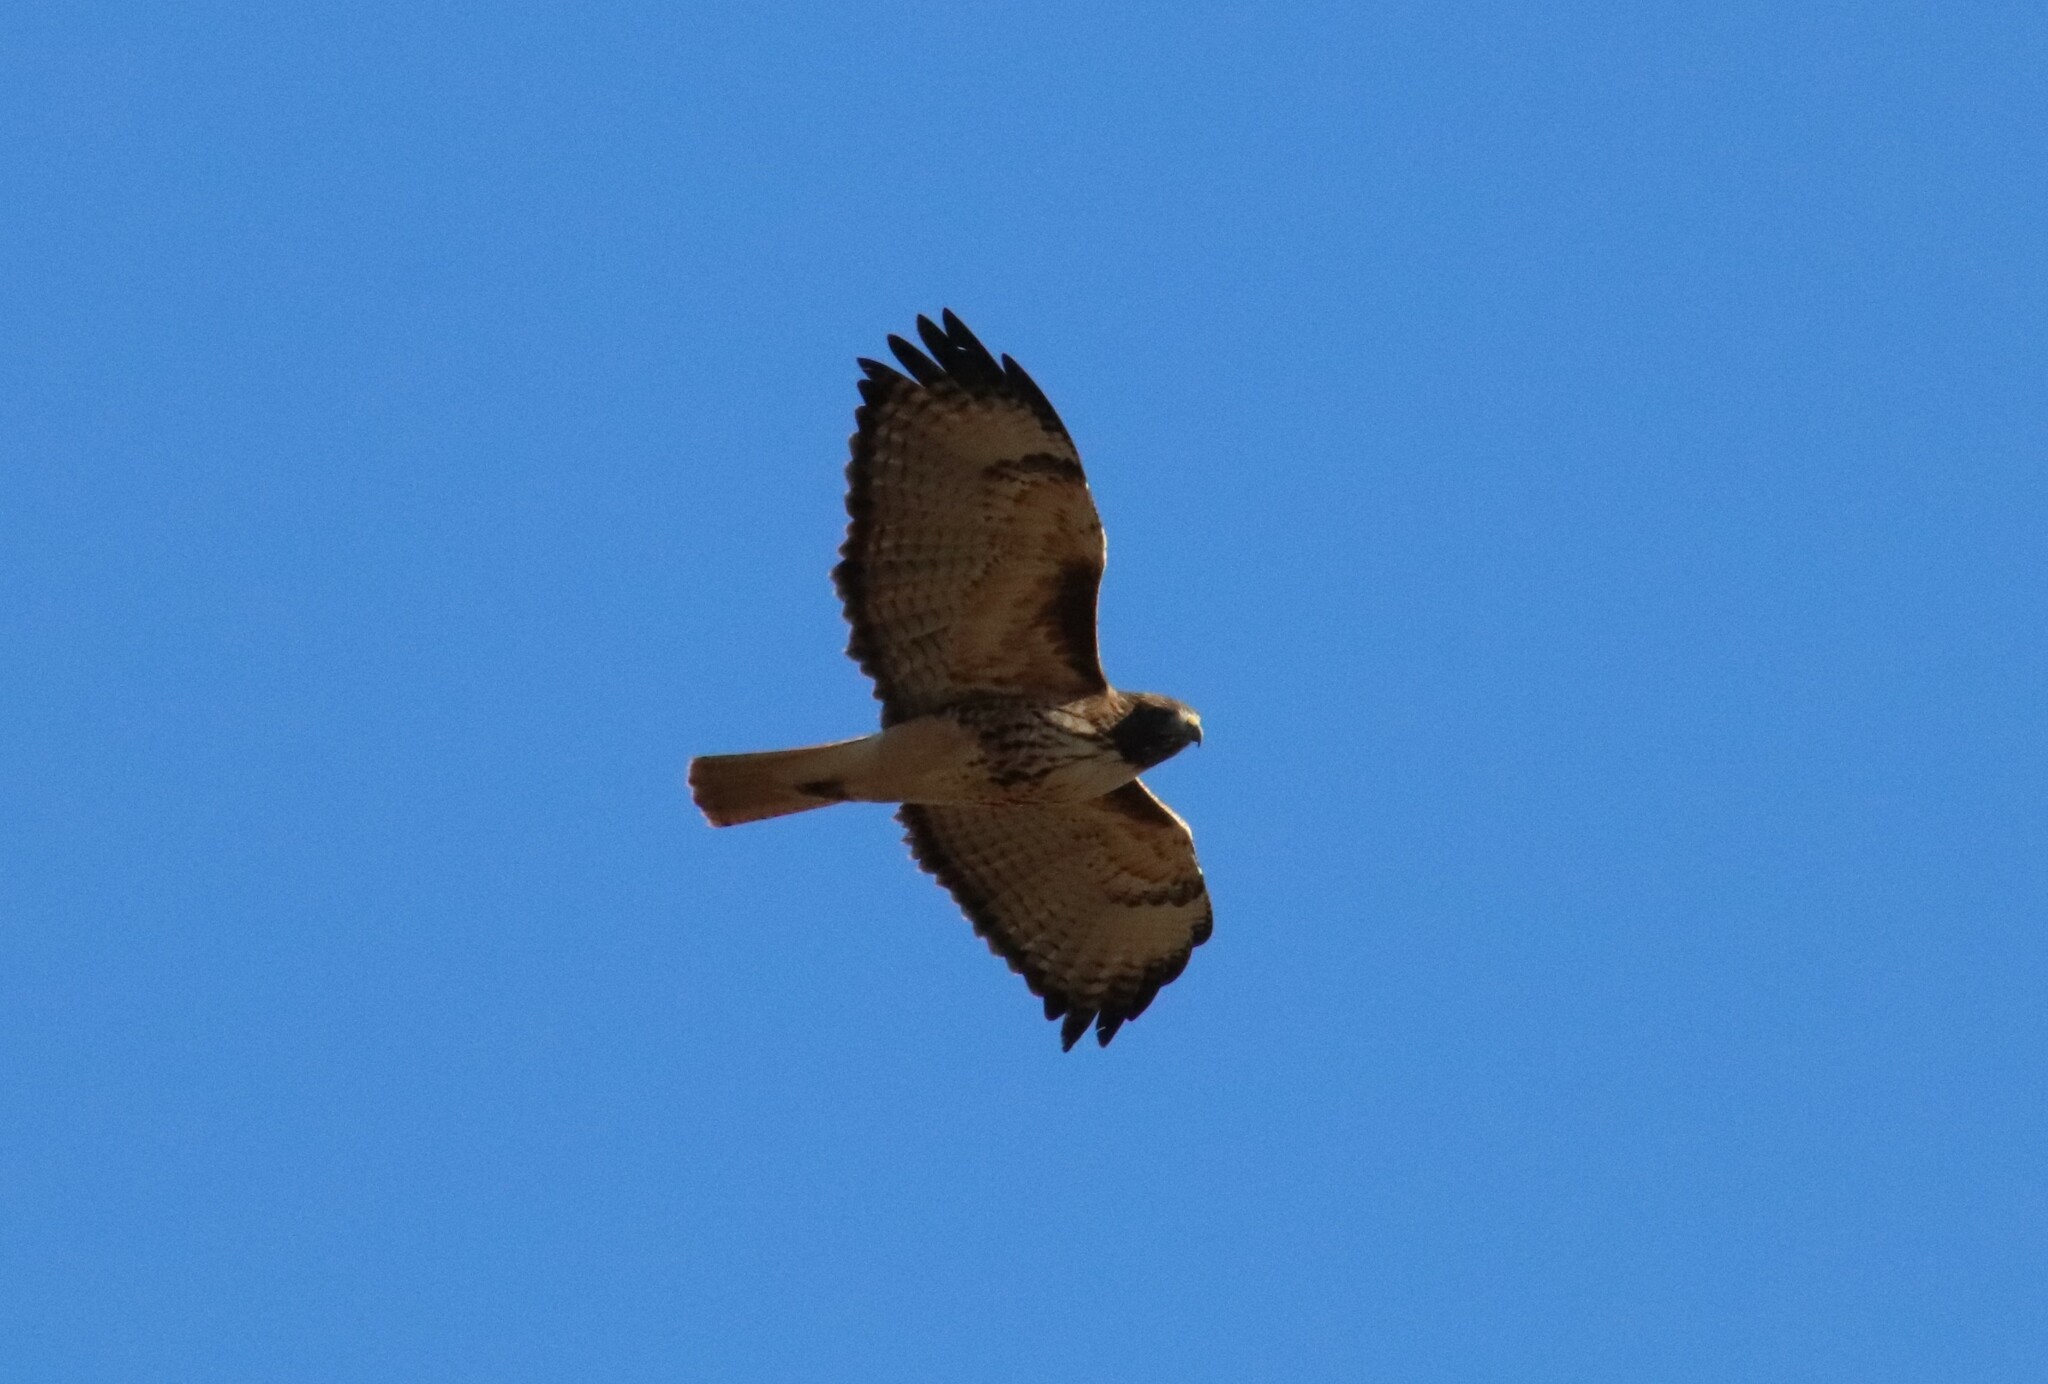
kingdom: Animalia
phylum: Chordata
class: Aves
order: Accipitriformes
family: Accipitridae
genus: Buteo
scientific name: Buteo jamaicensis
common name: Red-tailed hawk
